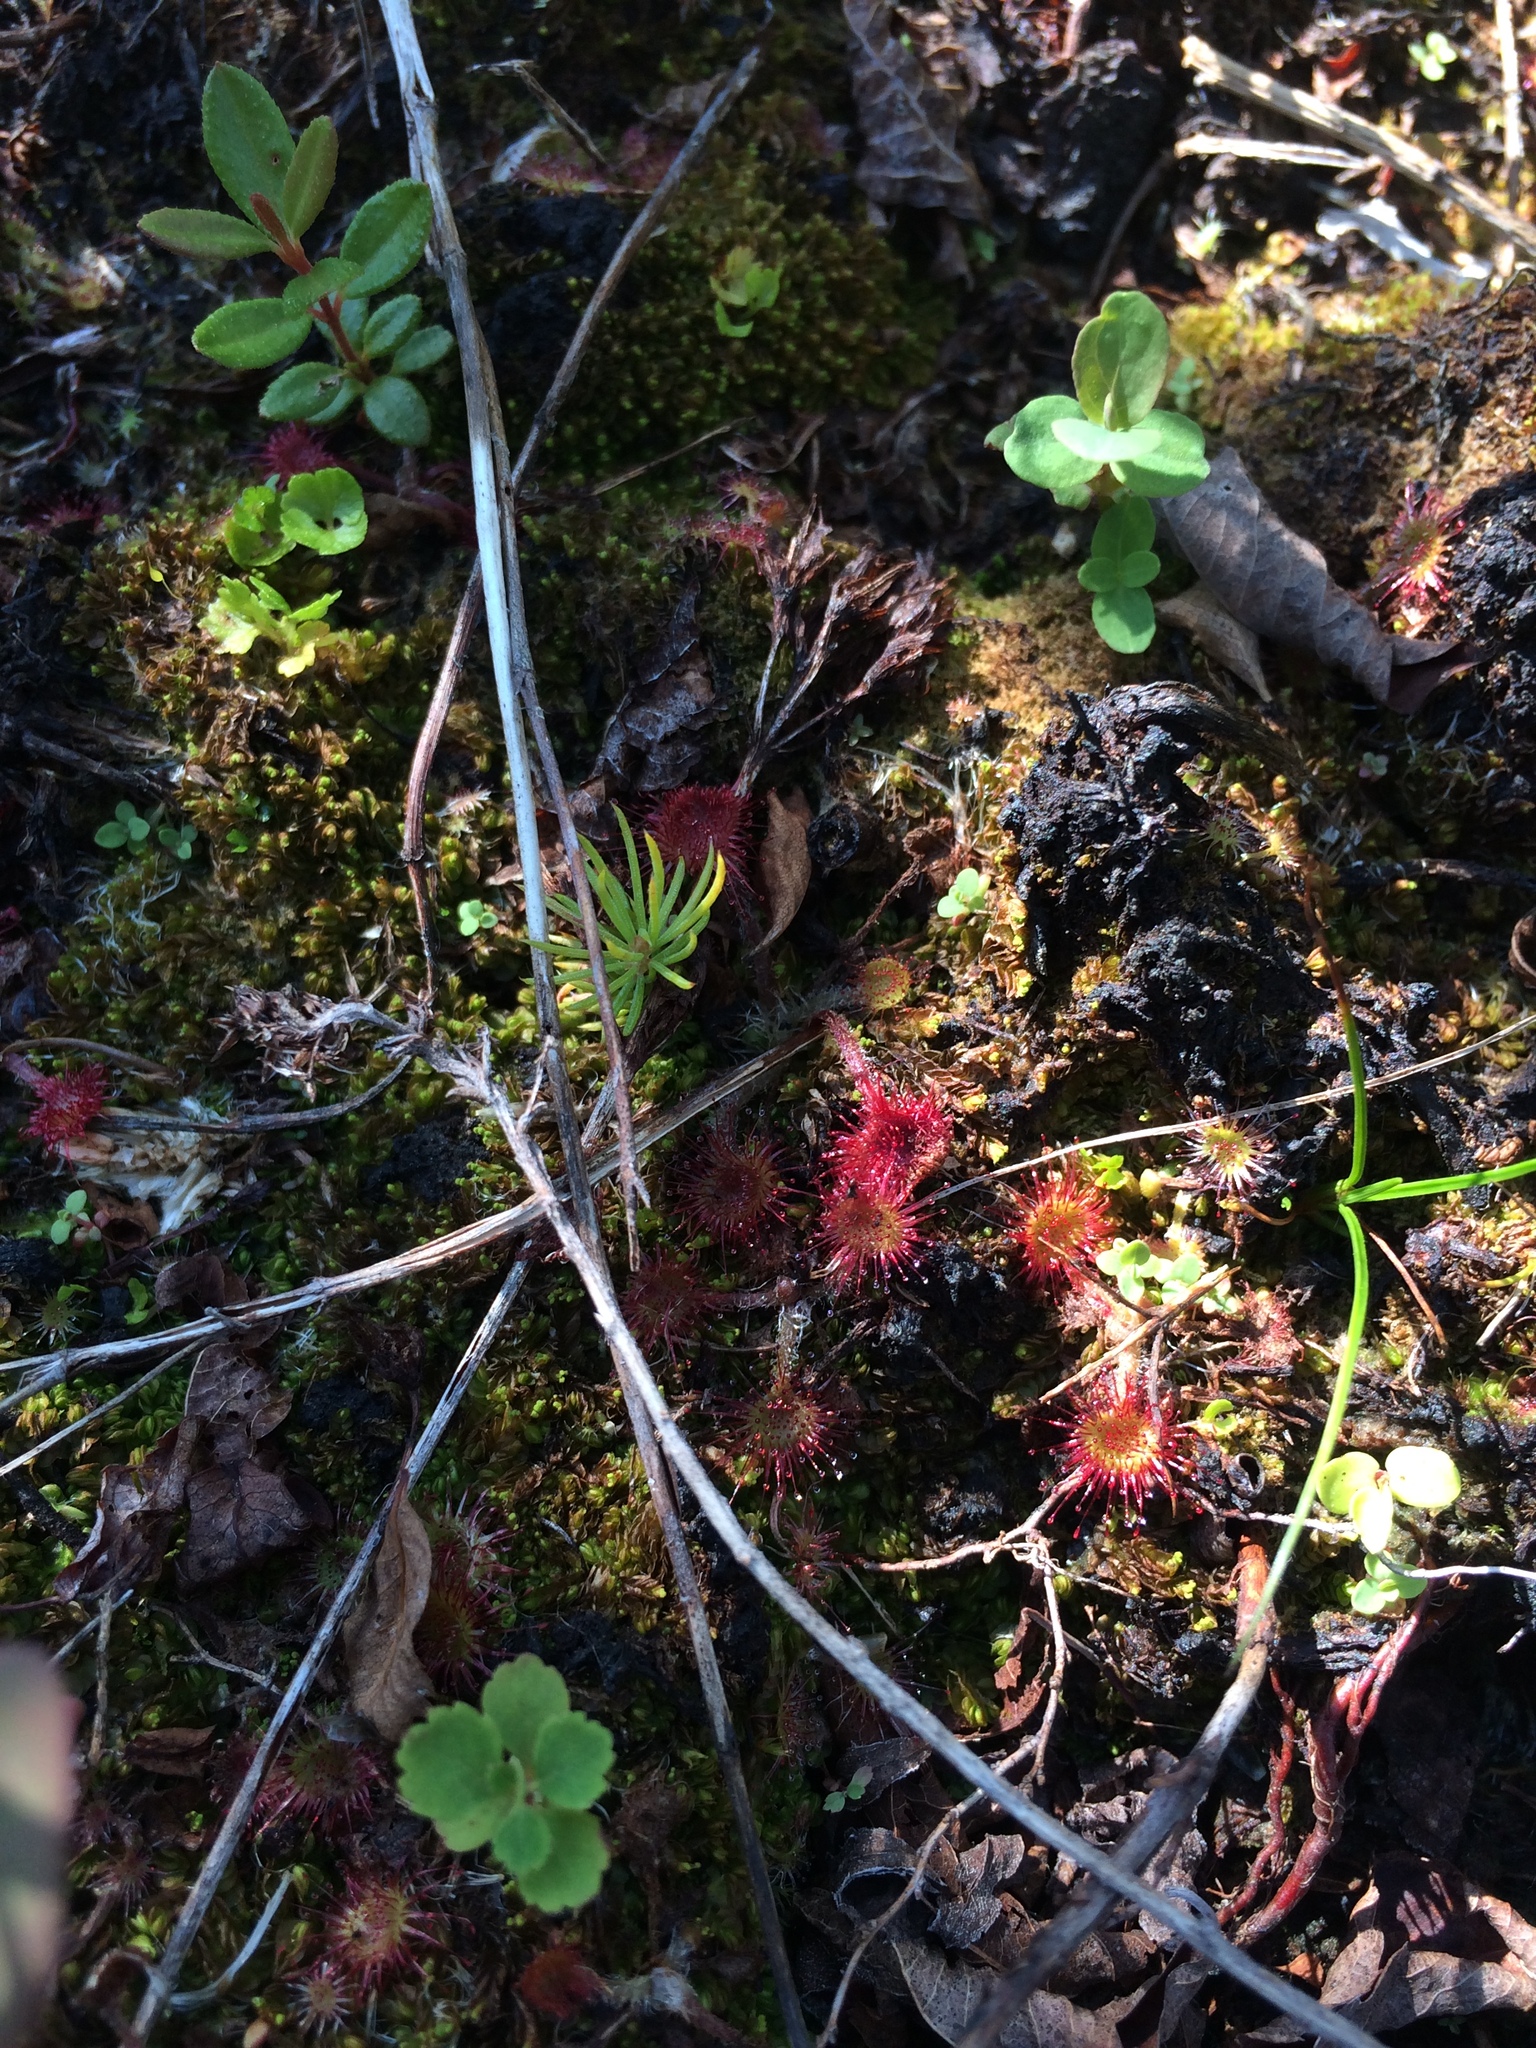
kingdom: Plantae
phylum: Tracheophyta
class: Magnoliopsida
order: Caryophyllales
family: Droseraceae
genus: Drosera
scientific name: Drosera rotundifolia
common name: Round-leaved sundew
